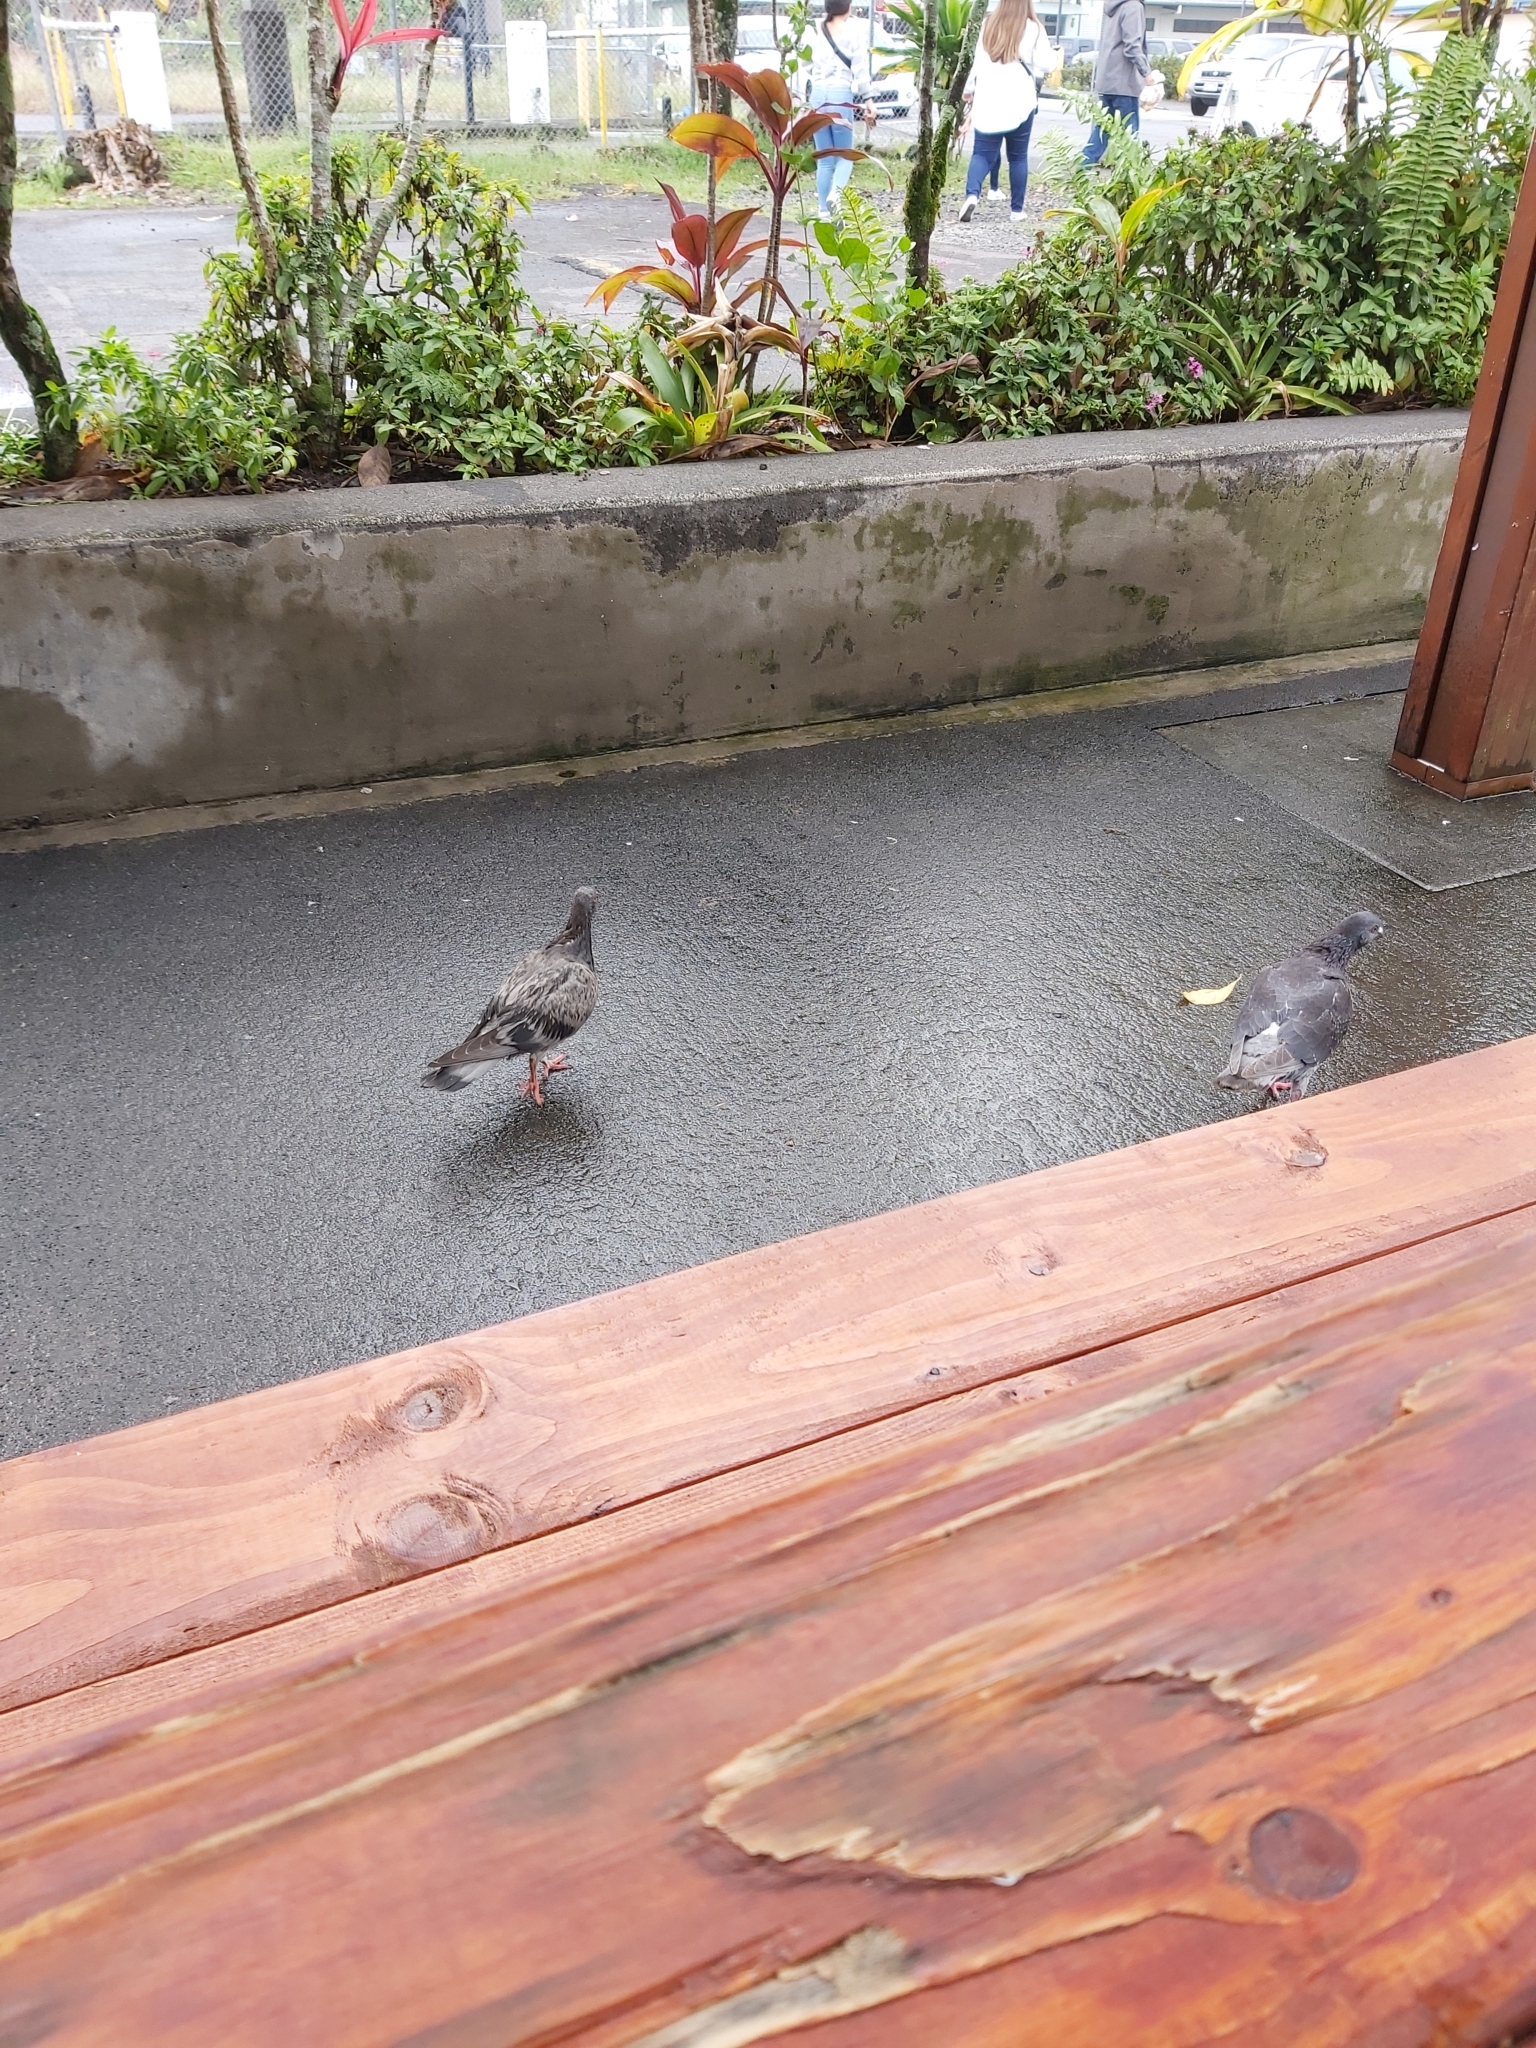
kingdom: Animalia
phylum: Chordata
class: Aves
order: Columbiformes
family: Columbidae
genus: Columba
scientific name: Columba livia
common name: Rock pigeon
